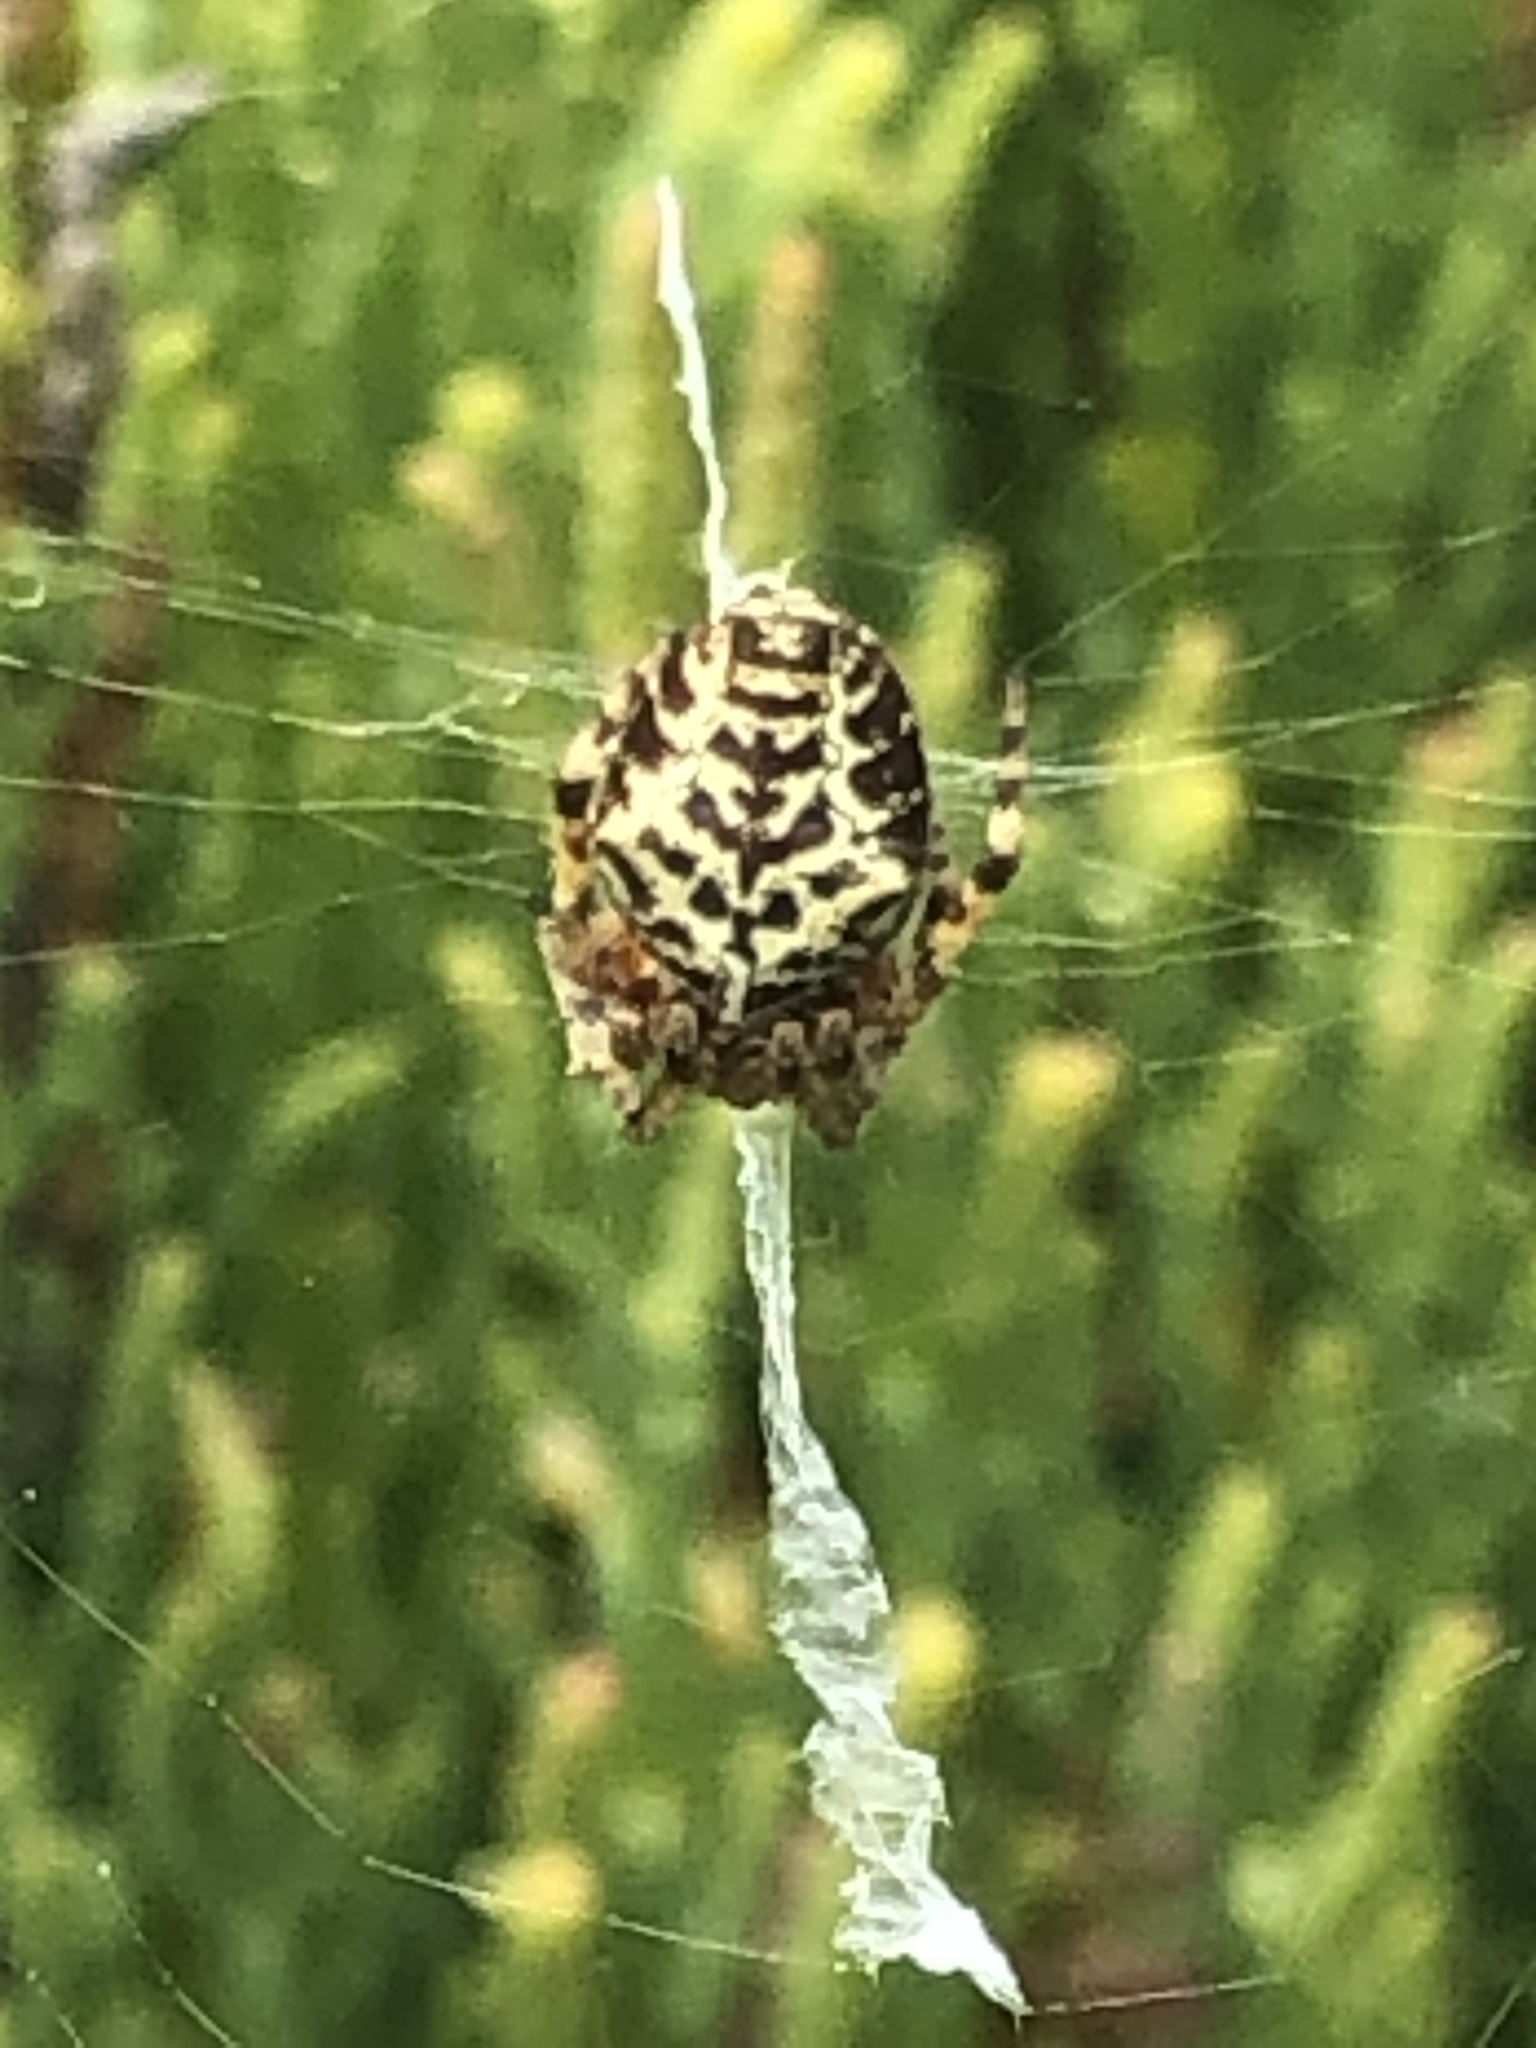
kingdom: Animalia
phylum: Arthropoda
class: Arachnida
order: Araneae
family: Araneidae
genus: Molinaranea
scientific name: Molinaranea magellanica
